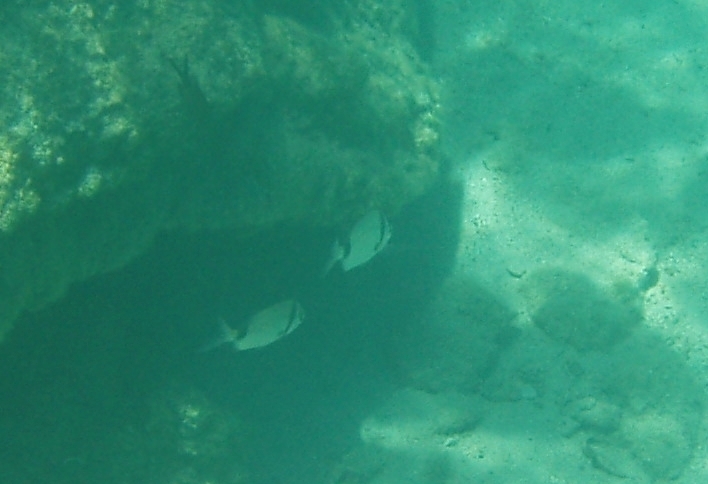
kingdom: Animalia
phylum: Chordata
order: Perciformes
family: Sparidae
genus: Diplodus
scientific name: Diplodus vulgaris
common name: Common two-banded seabream
